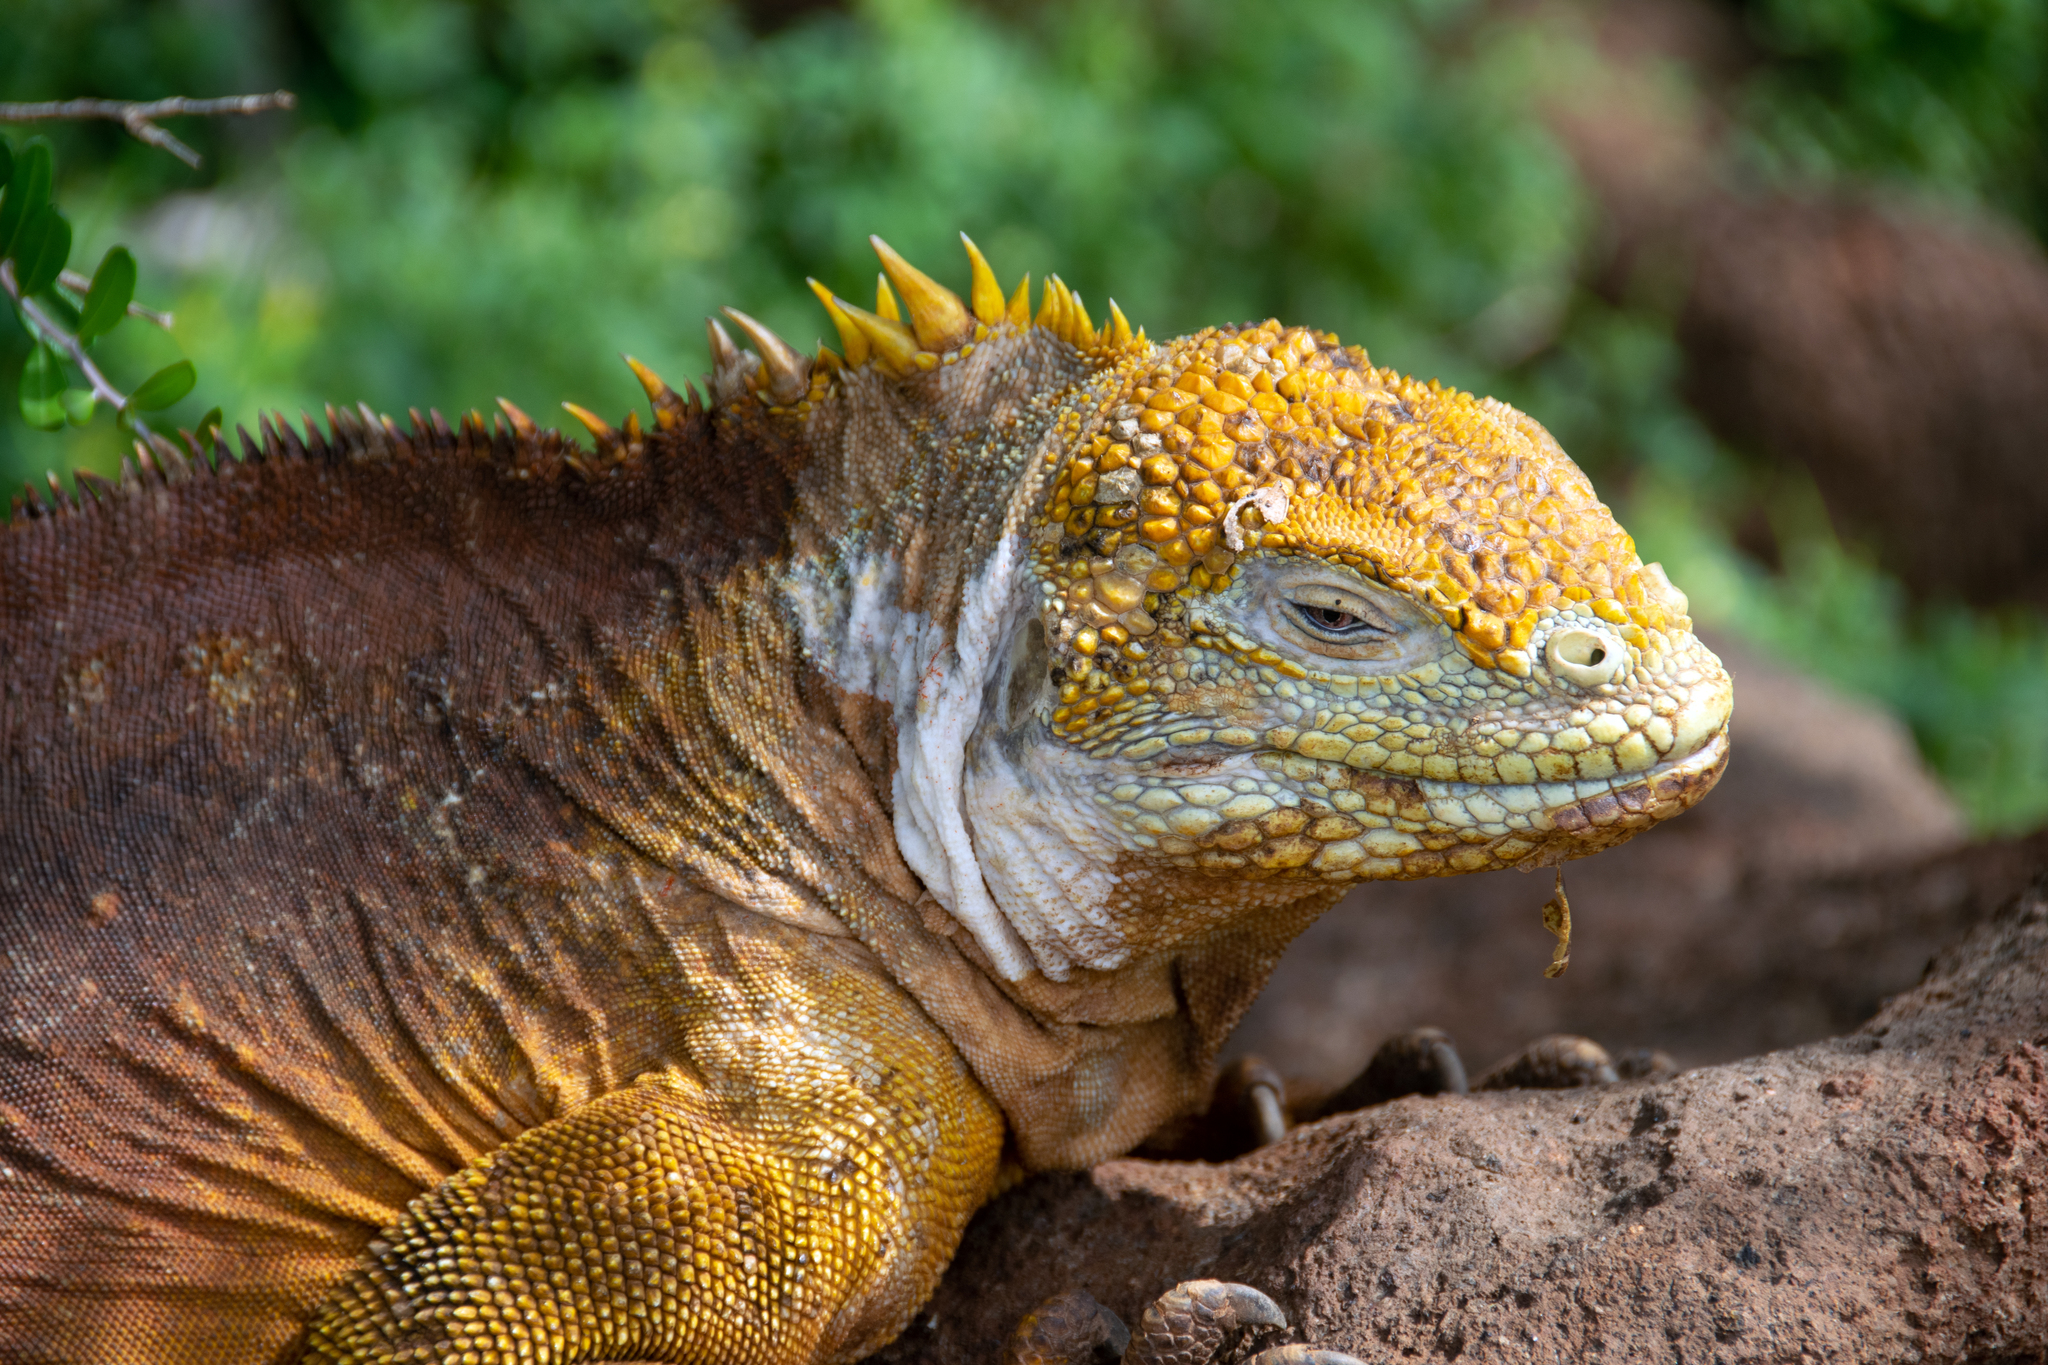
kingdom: Animalia
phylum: Chordata
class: Squamata
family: Iguanidae
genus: Conolophus
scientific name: Conolophus subcristatus
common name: Galapagos land iguana
